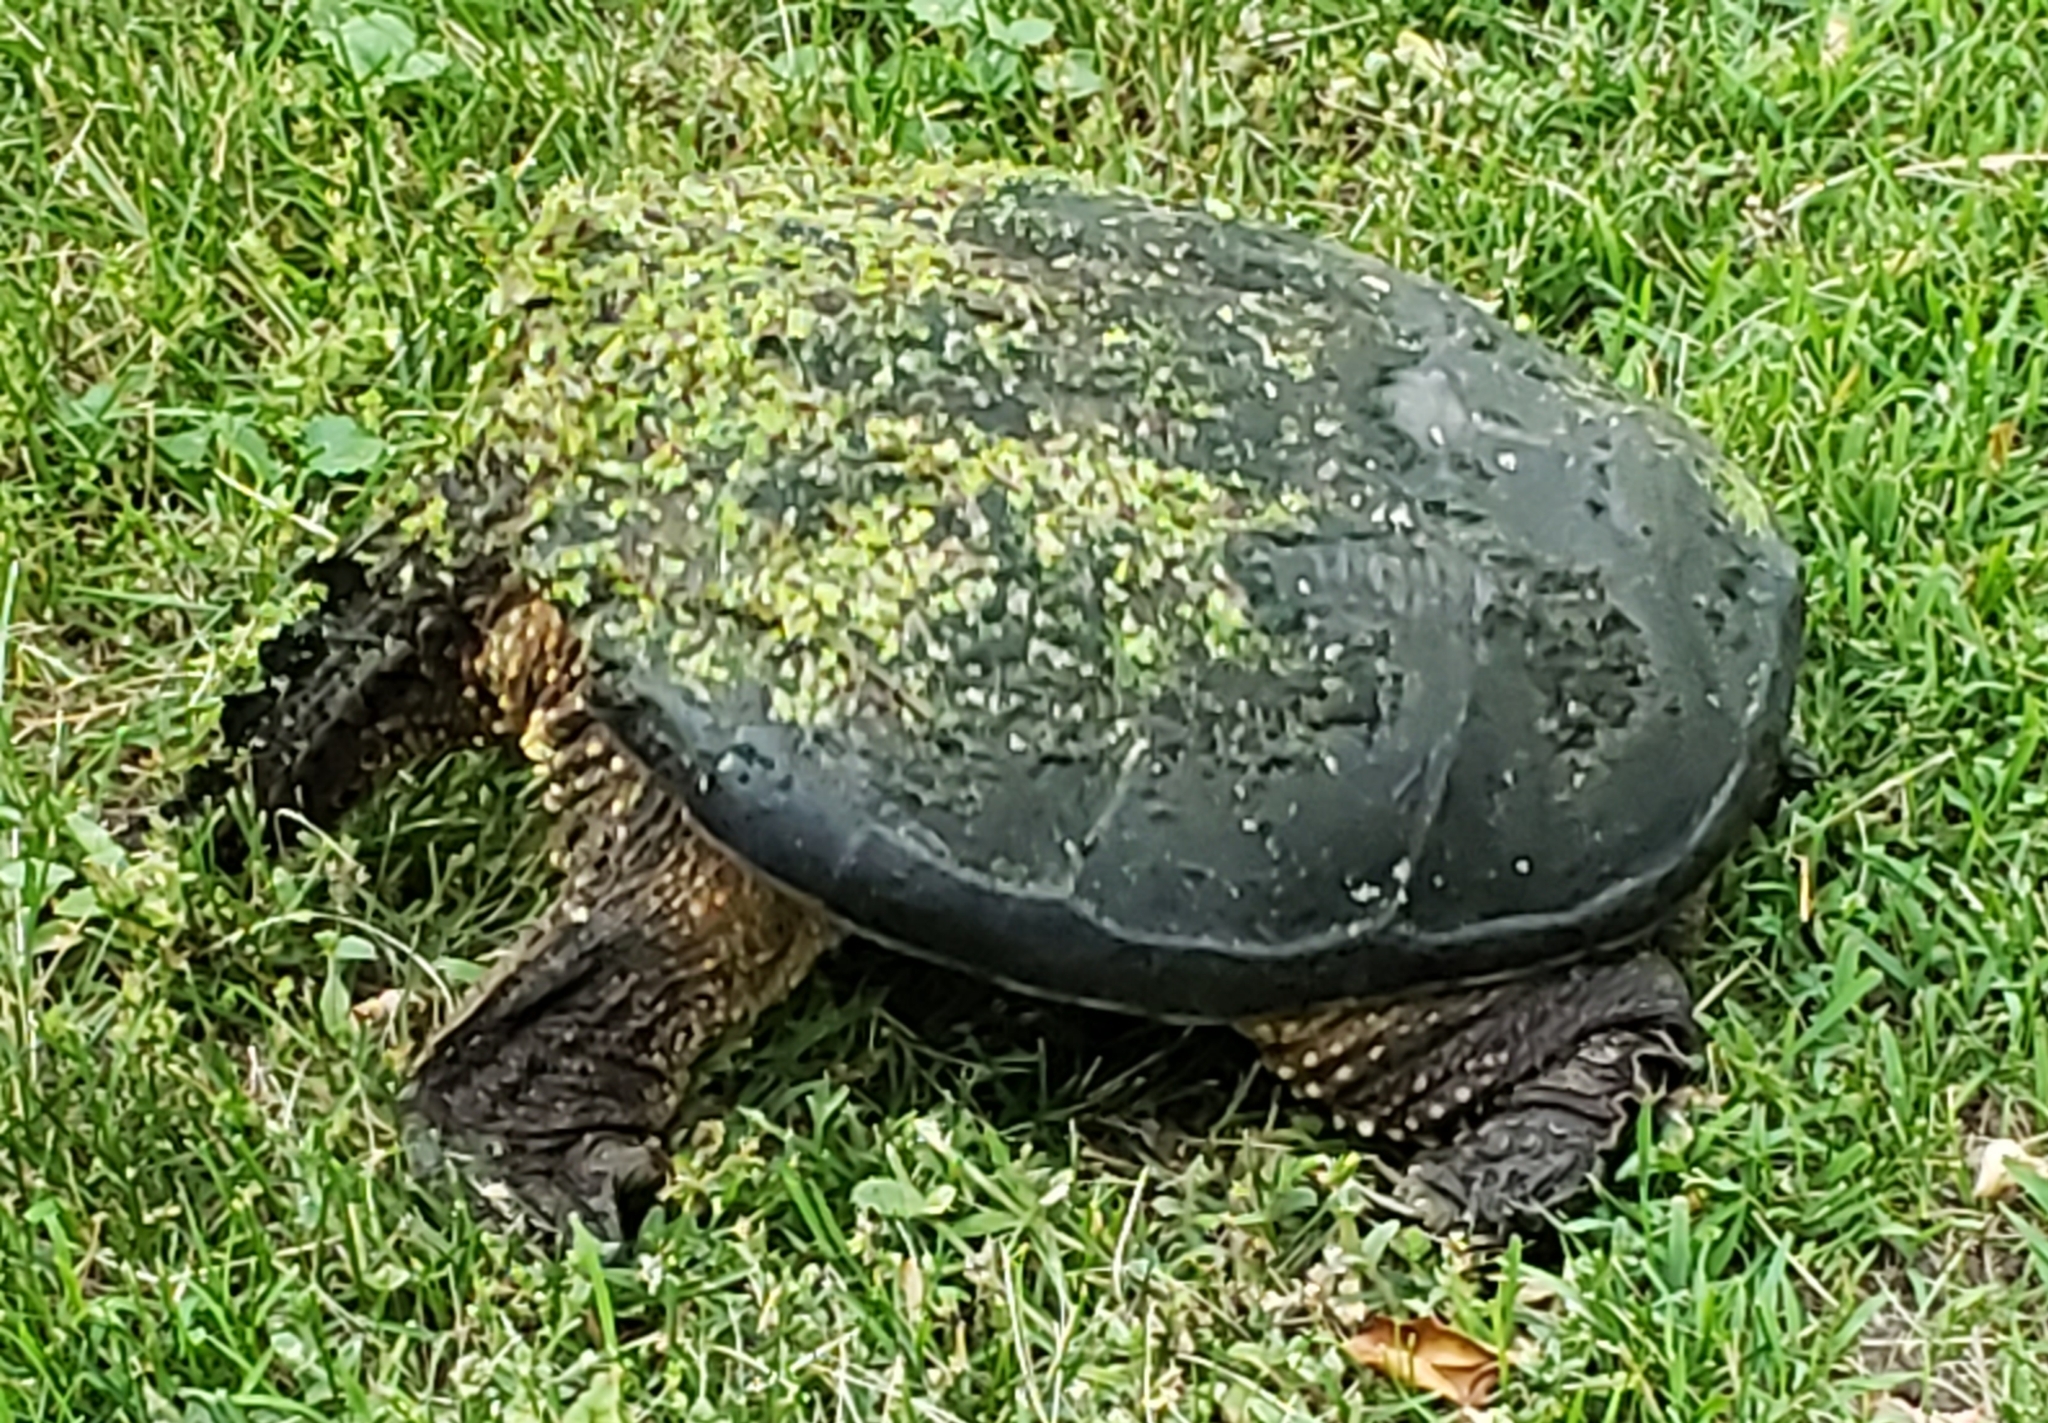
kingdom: Animalia
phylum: Chordata
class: Testudines
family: Chelydridae
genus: Chelydra
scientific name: Chelydra serpentina
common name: Common snapping turtle
